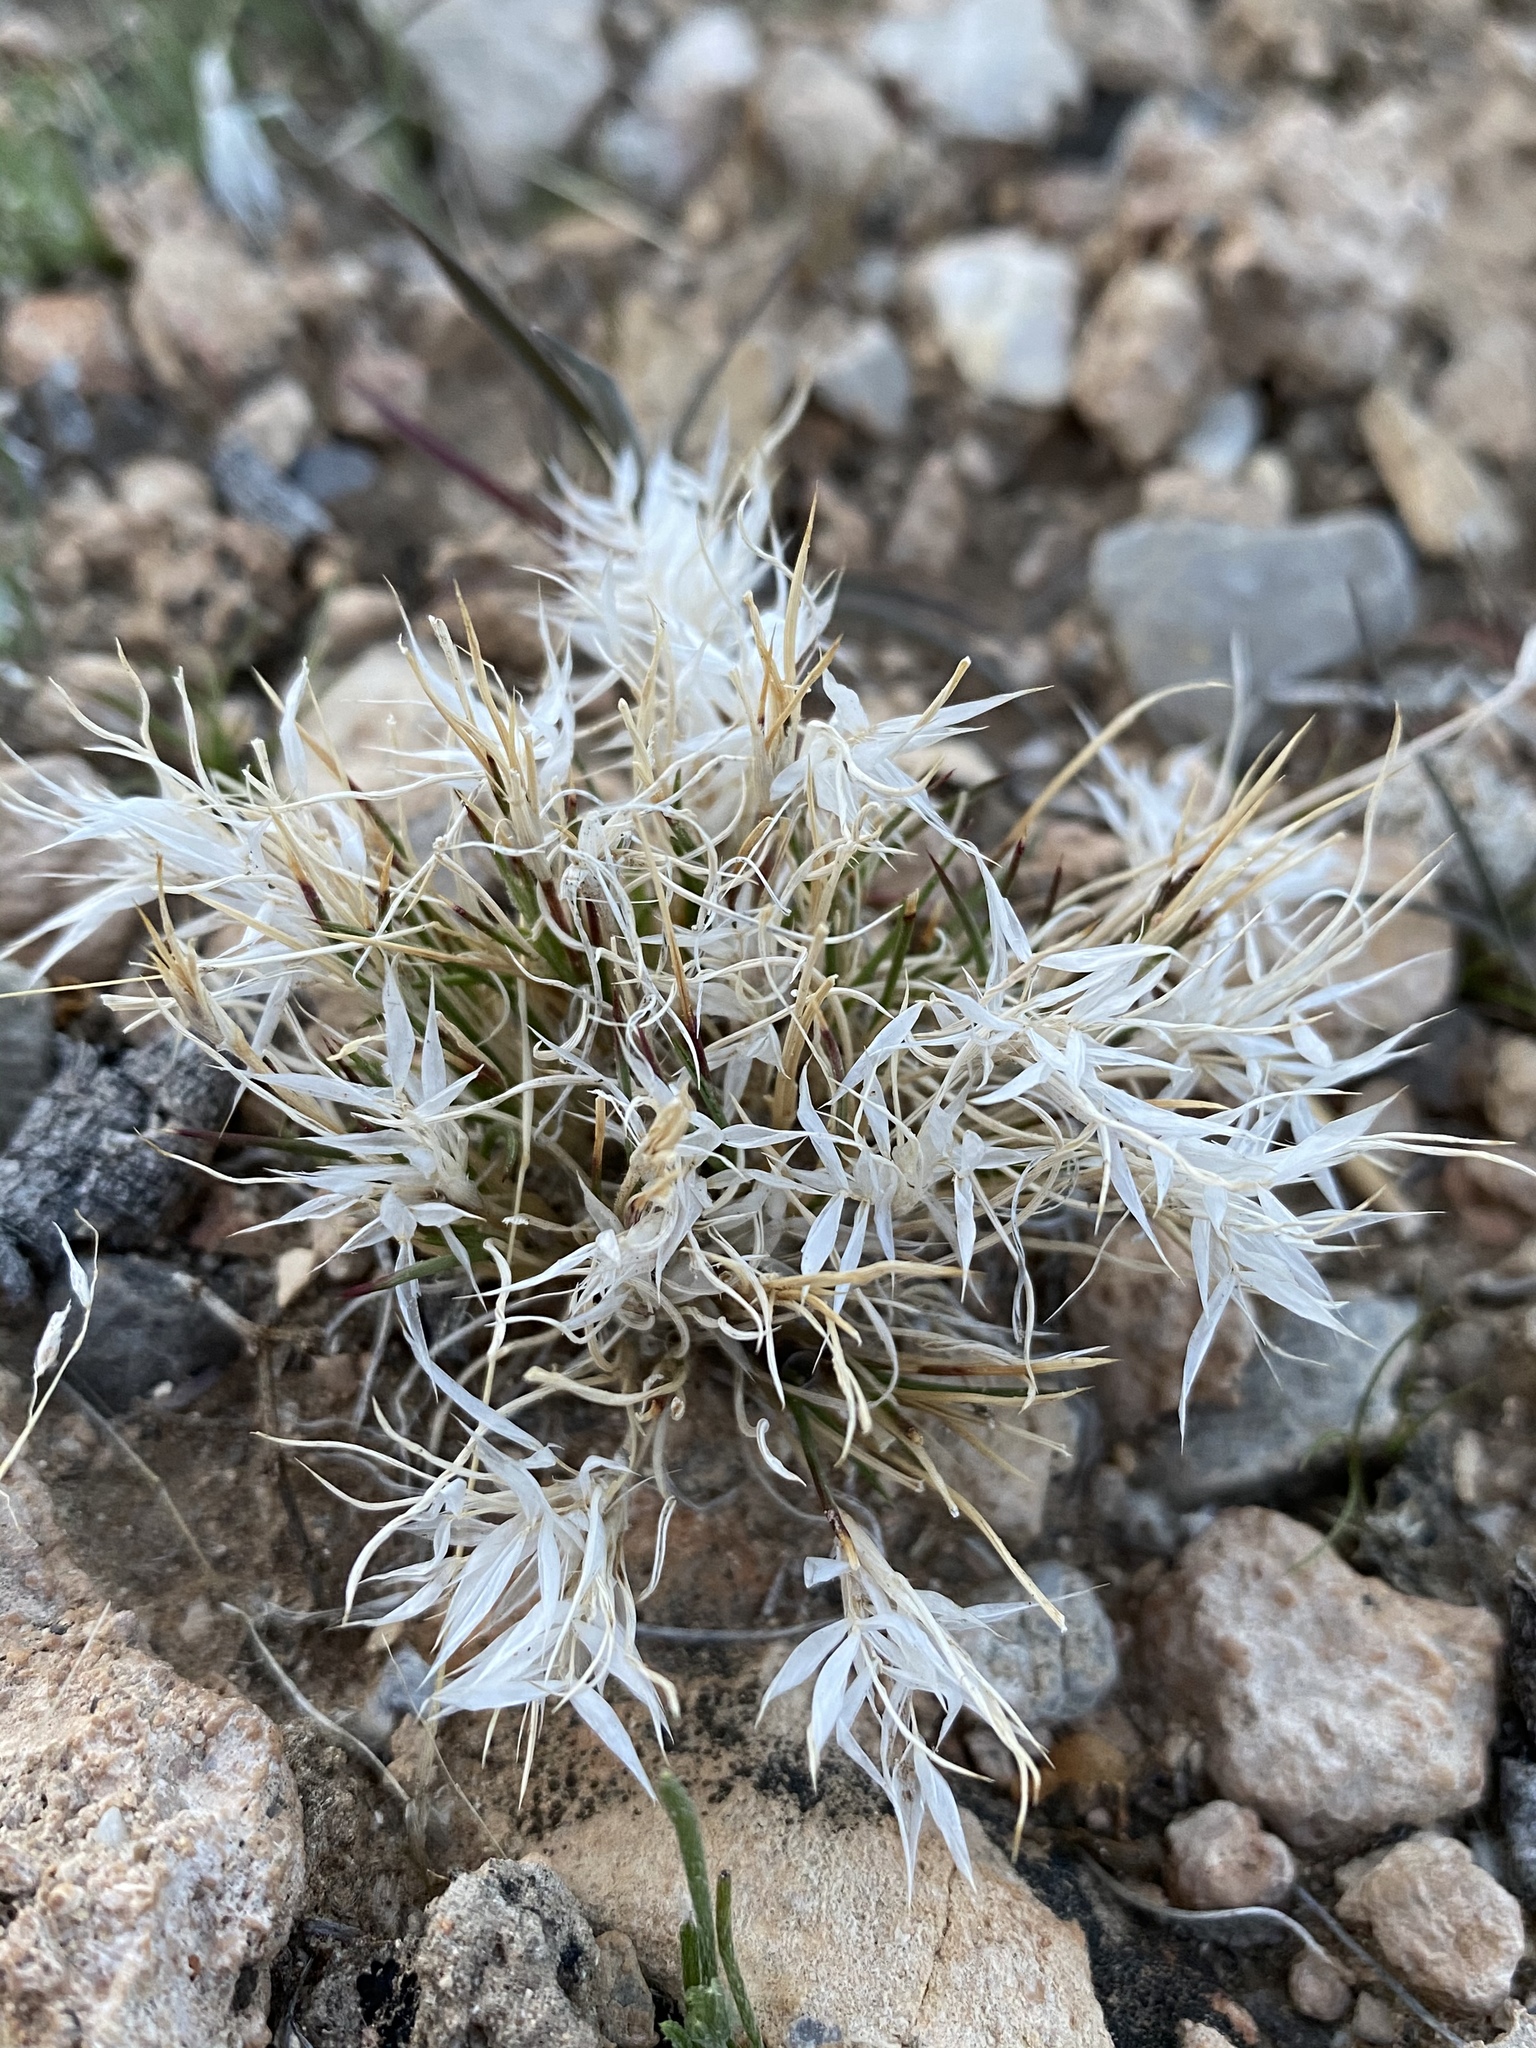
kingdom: Plantae
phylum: Tracheophyta
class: Liliopsida
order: Poales
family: Poaceae
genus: Dasyochloa
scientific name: Dasyochloa pulchella
